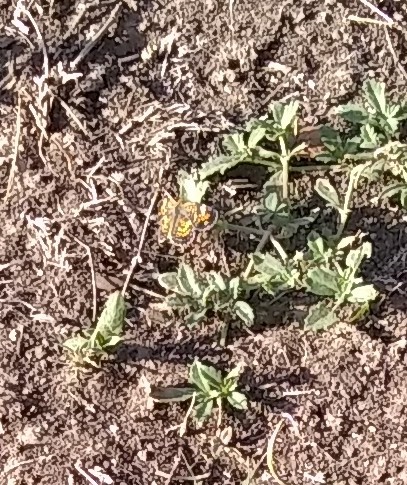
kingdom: Animalia
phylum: Arthropoda
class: Insecta
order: Lepidoptera
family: Nymphalidae
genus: Phyciodes
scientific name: Phyciodes phaon
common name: Phaon crescent
